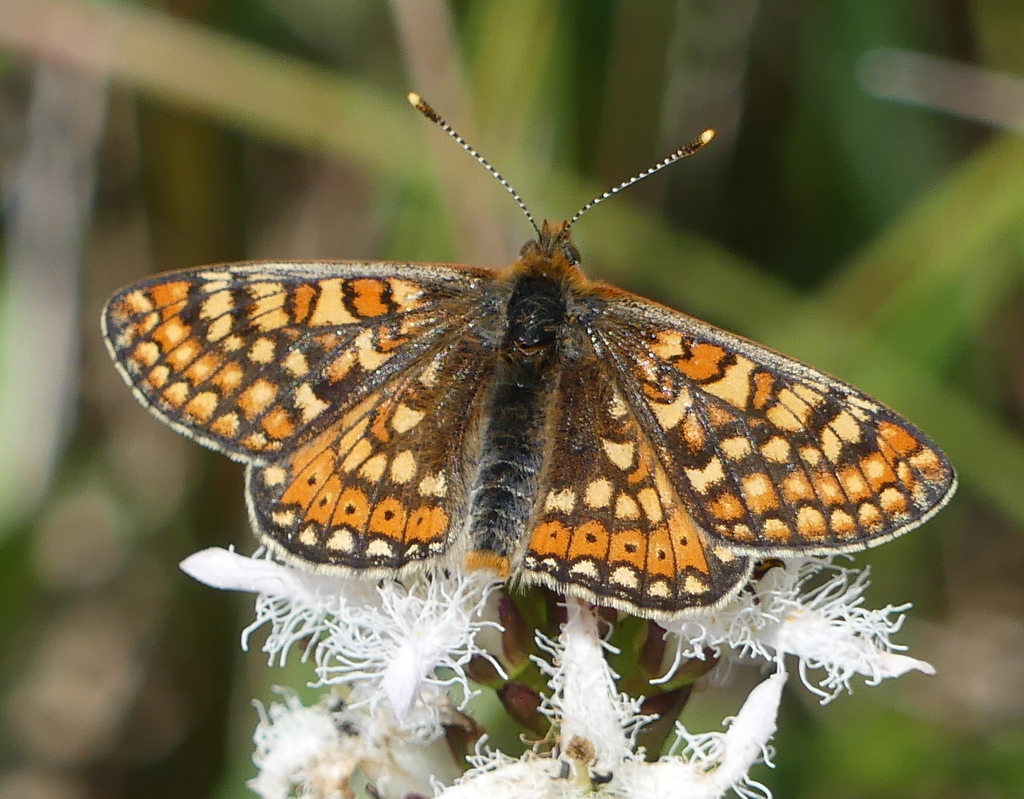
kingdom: Animalia
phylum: Arthropoda
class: Insecta
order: Lepidoptera
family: Nymphalidae
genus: Euphydryas
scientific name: Euphydryas aurinia
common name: Marsh fritillary
